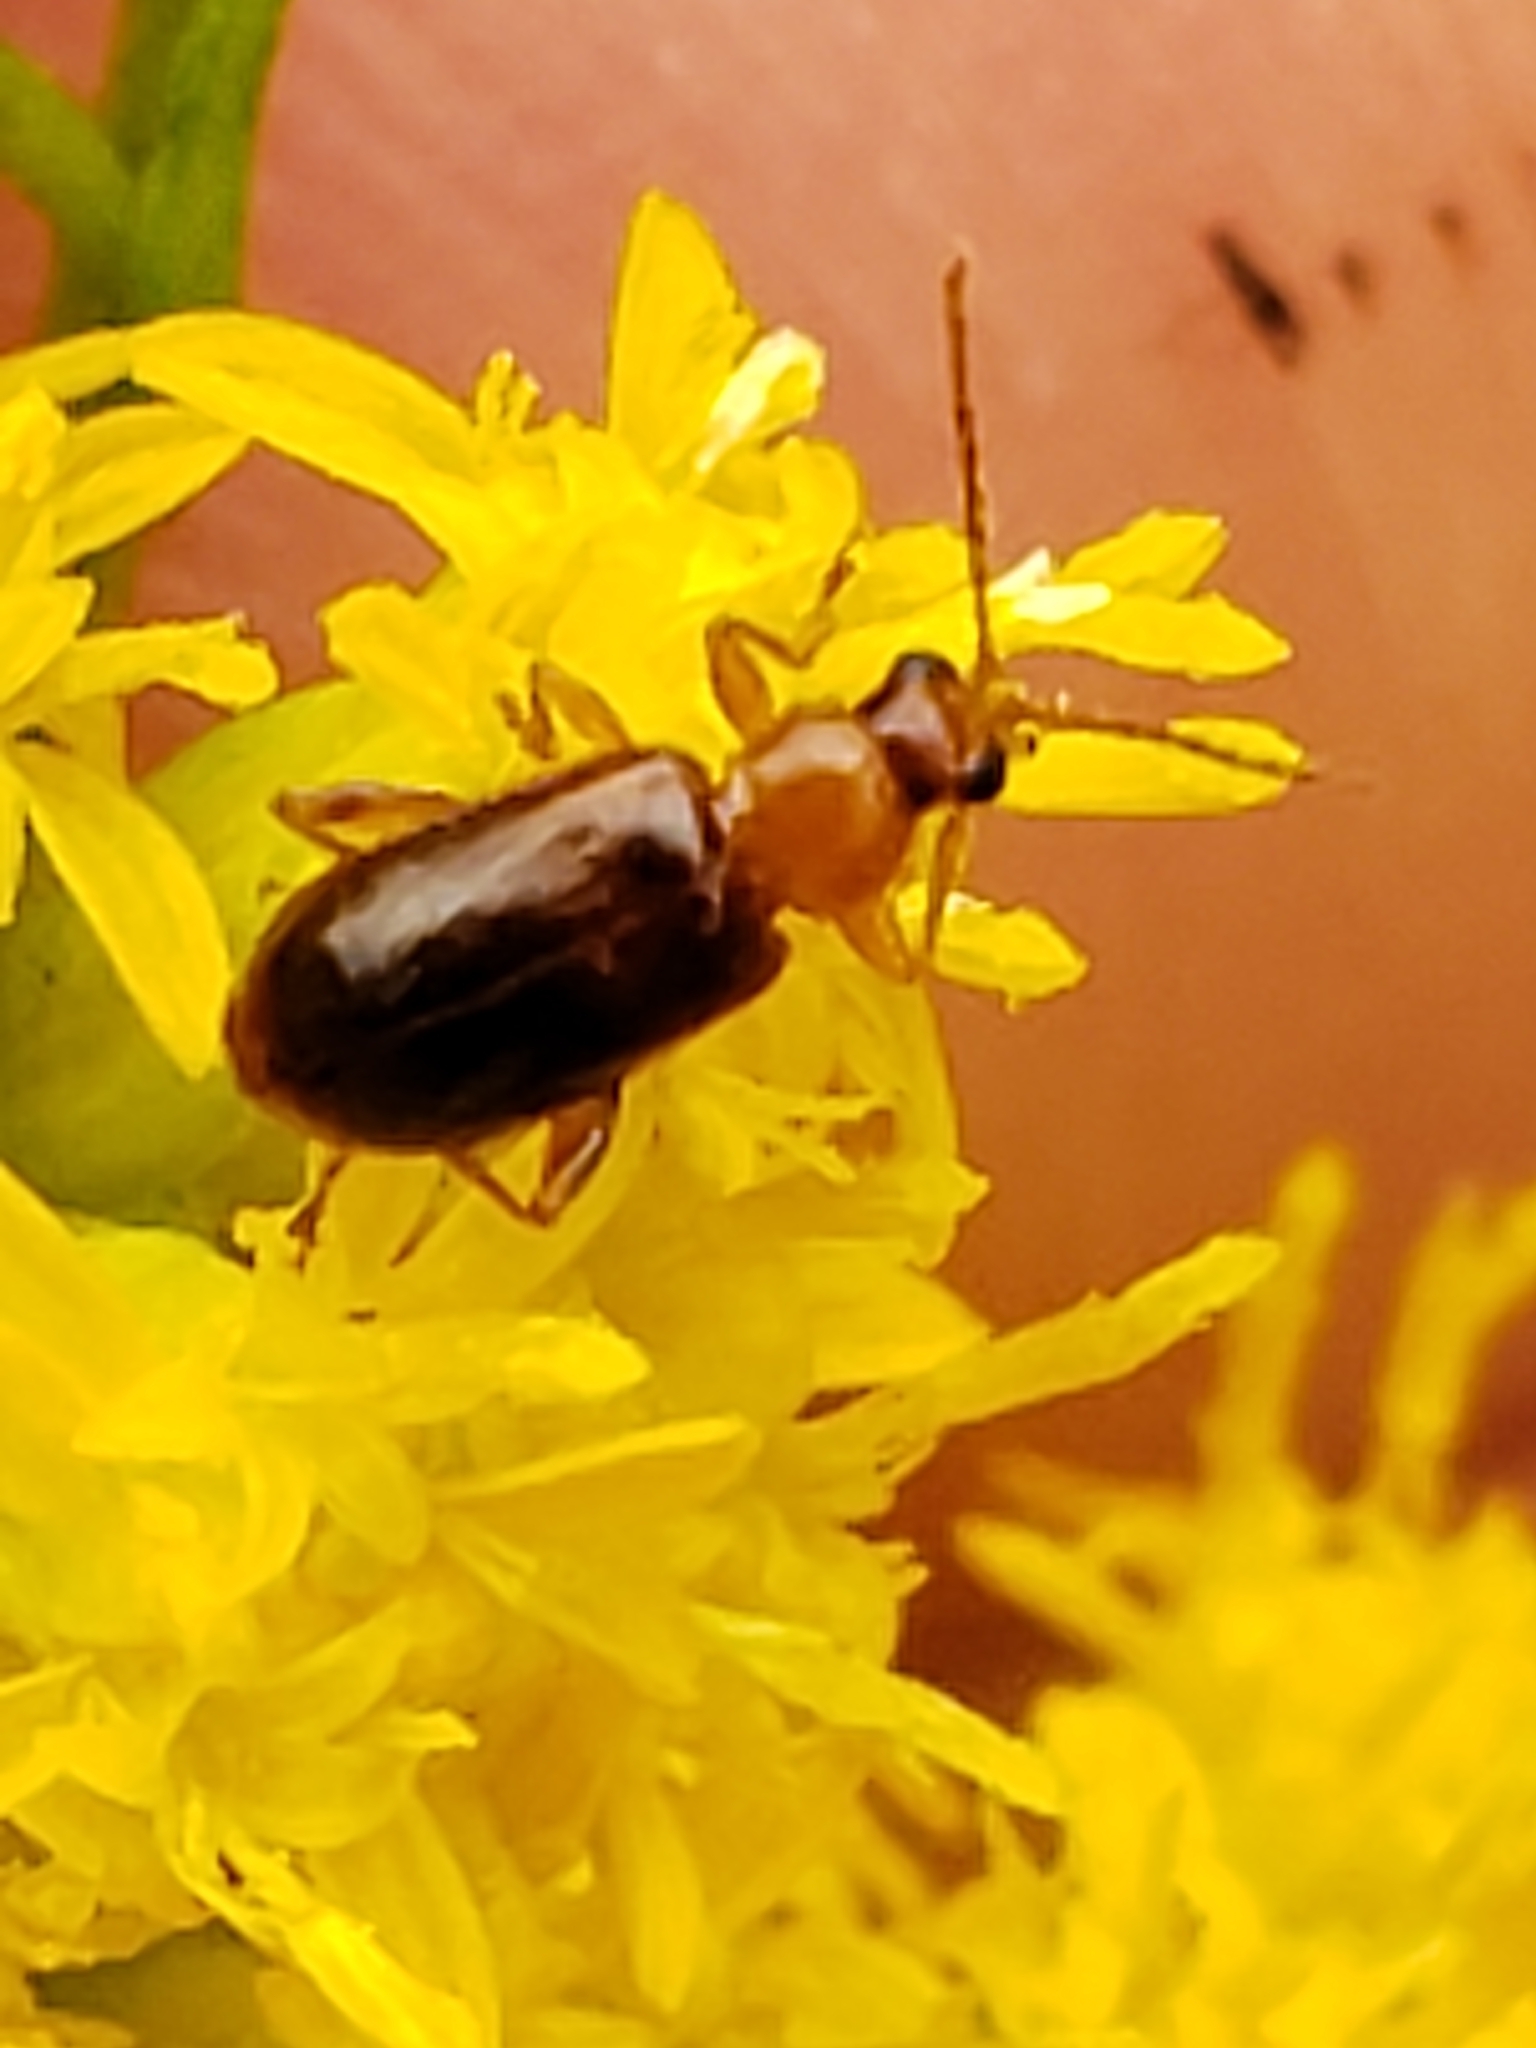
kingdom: Animalia
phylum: Arthropoda
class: Insecta
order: Coleoptera
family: Chrysomelidae
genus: Luperaltica
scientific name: Luperaltica nigripalpis
